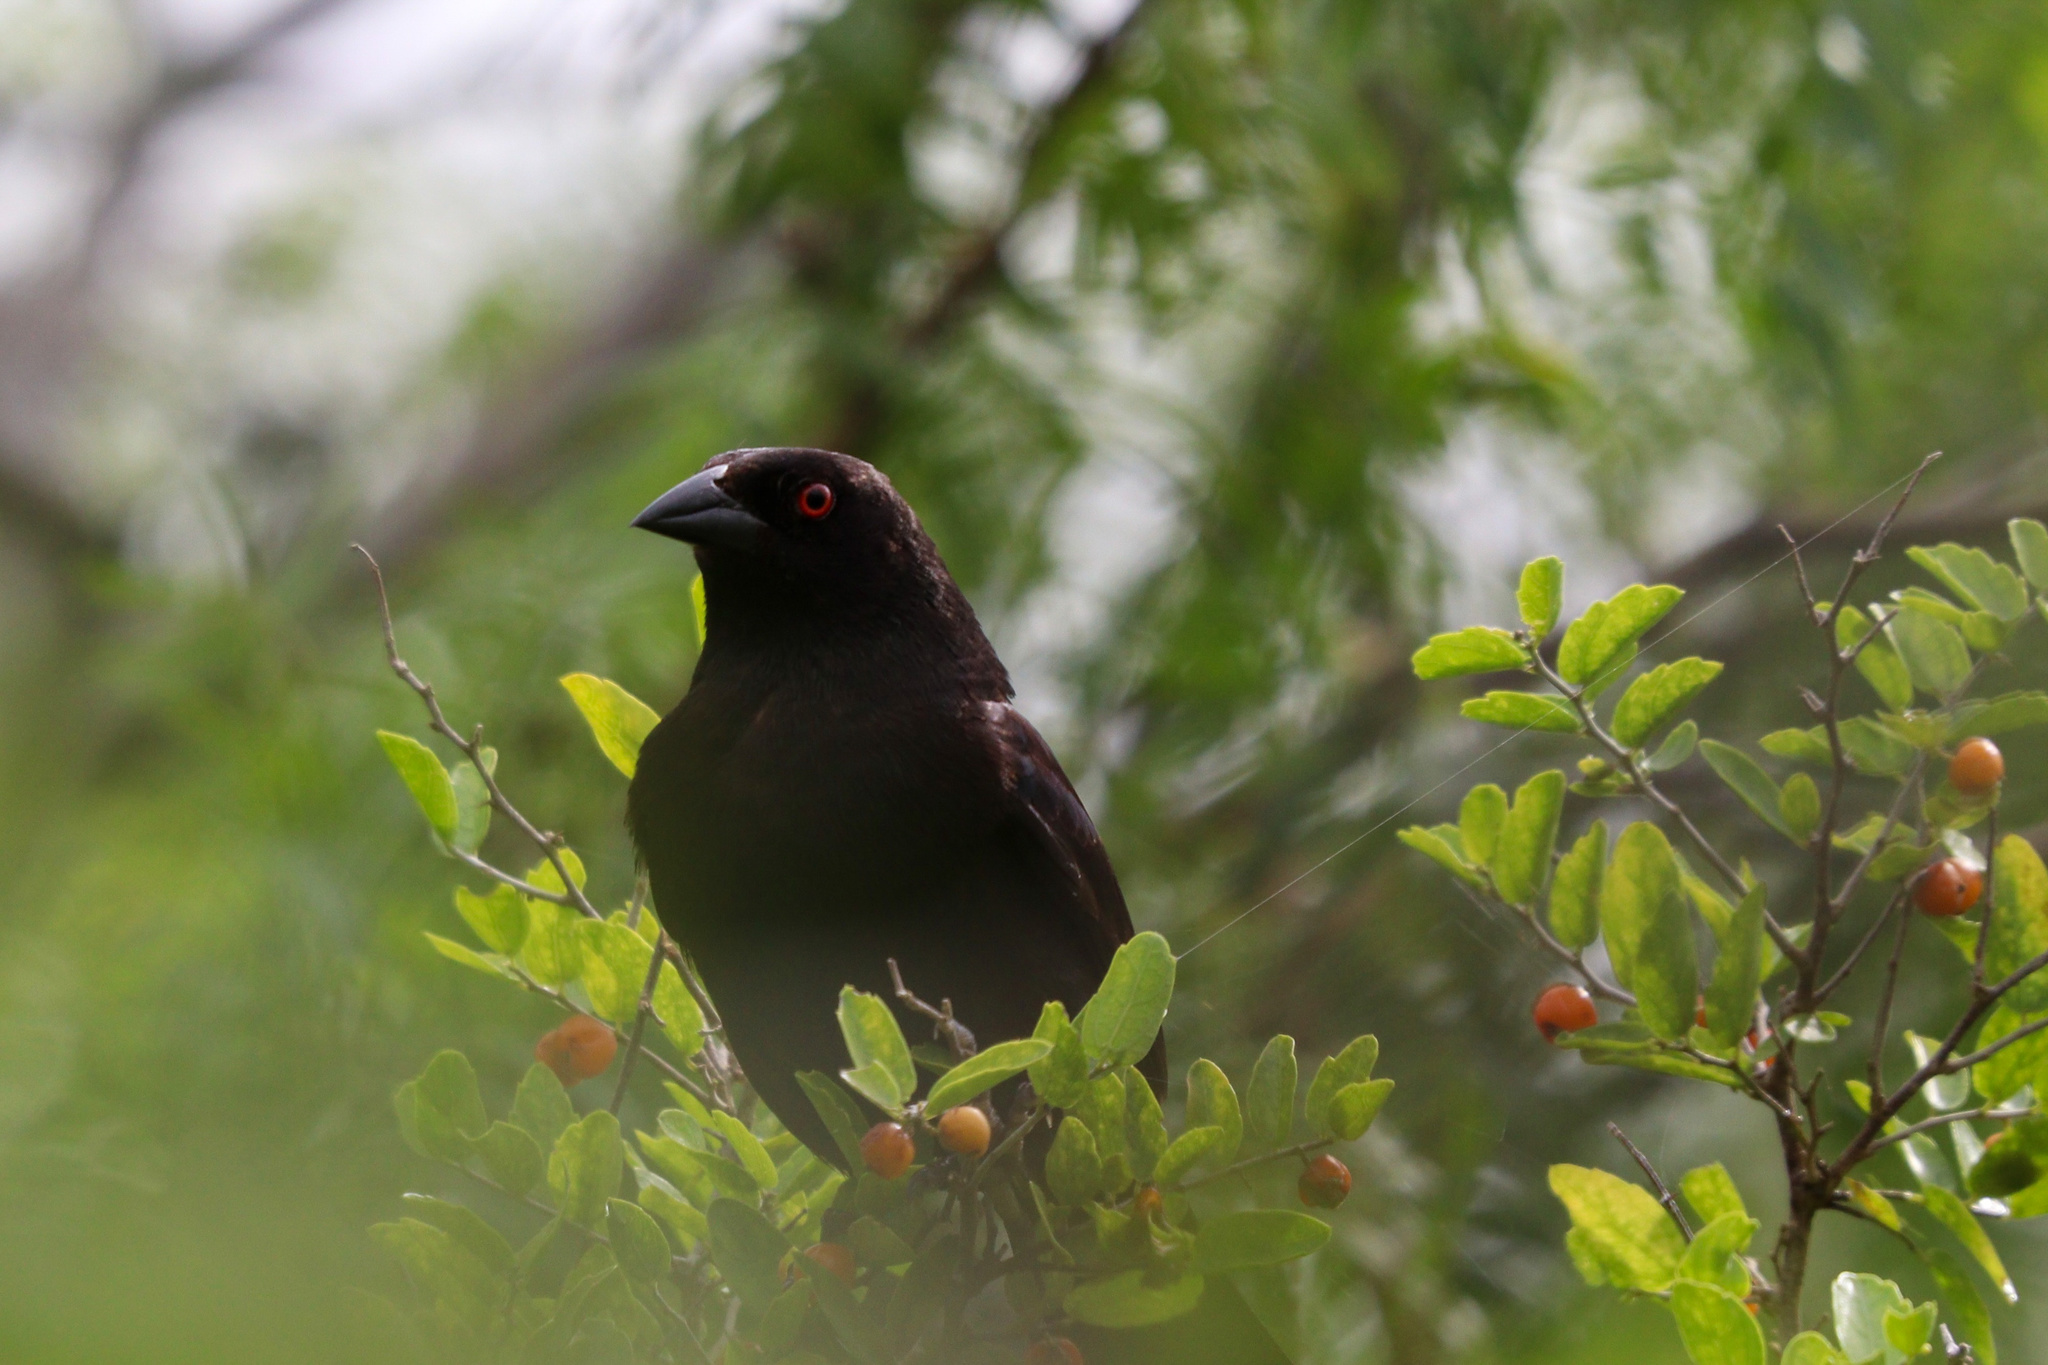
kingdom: Animalia
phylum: Chordata
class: Aves
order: Passeriformes
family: Icteridae
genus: Molothrus
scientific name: Molothrus aeneus
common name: Bronzed cowbird
